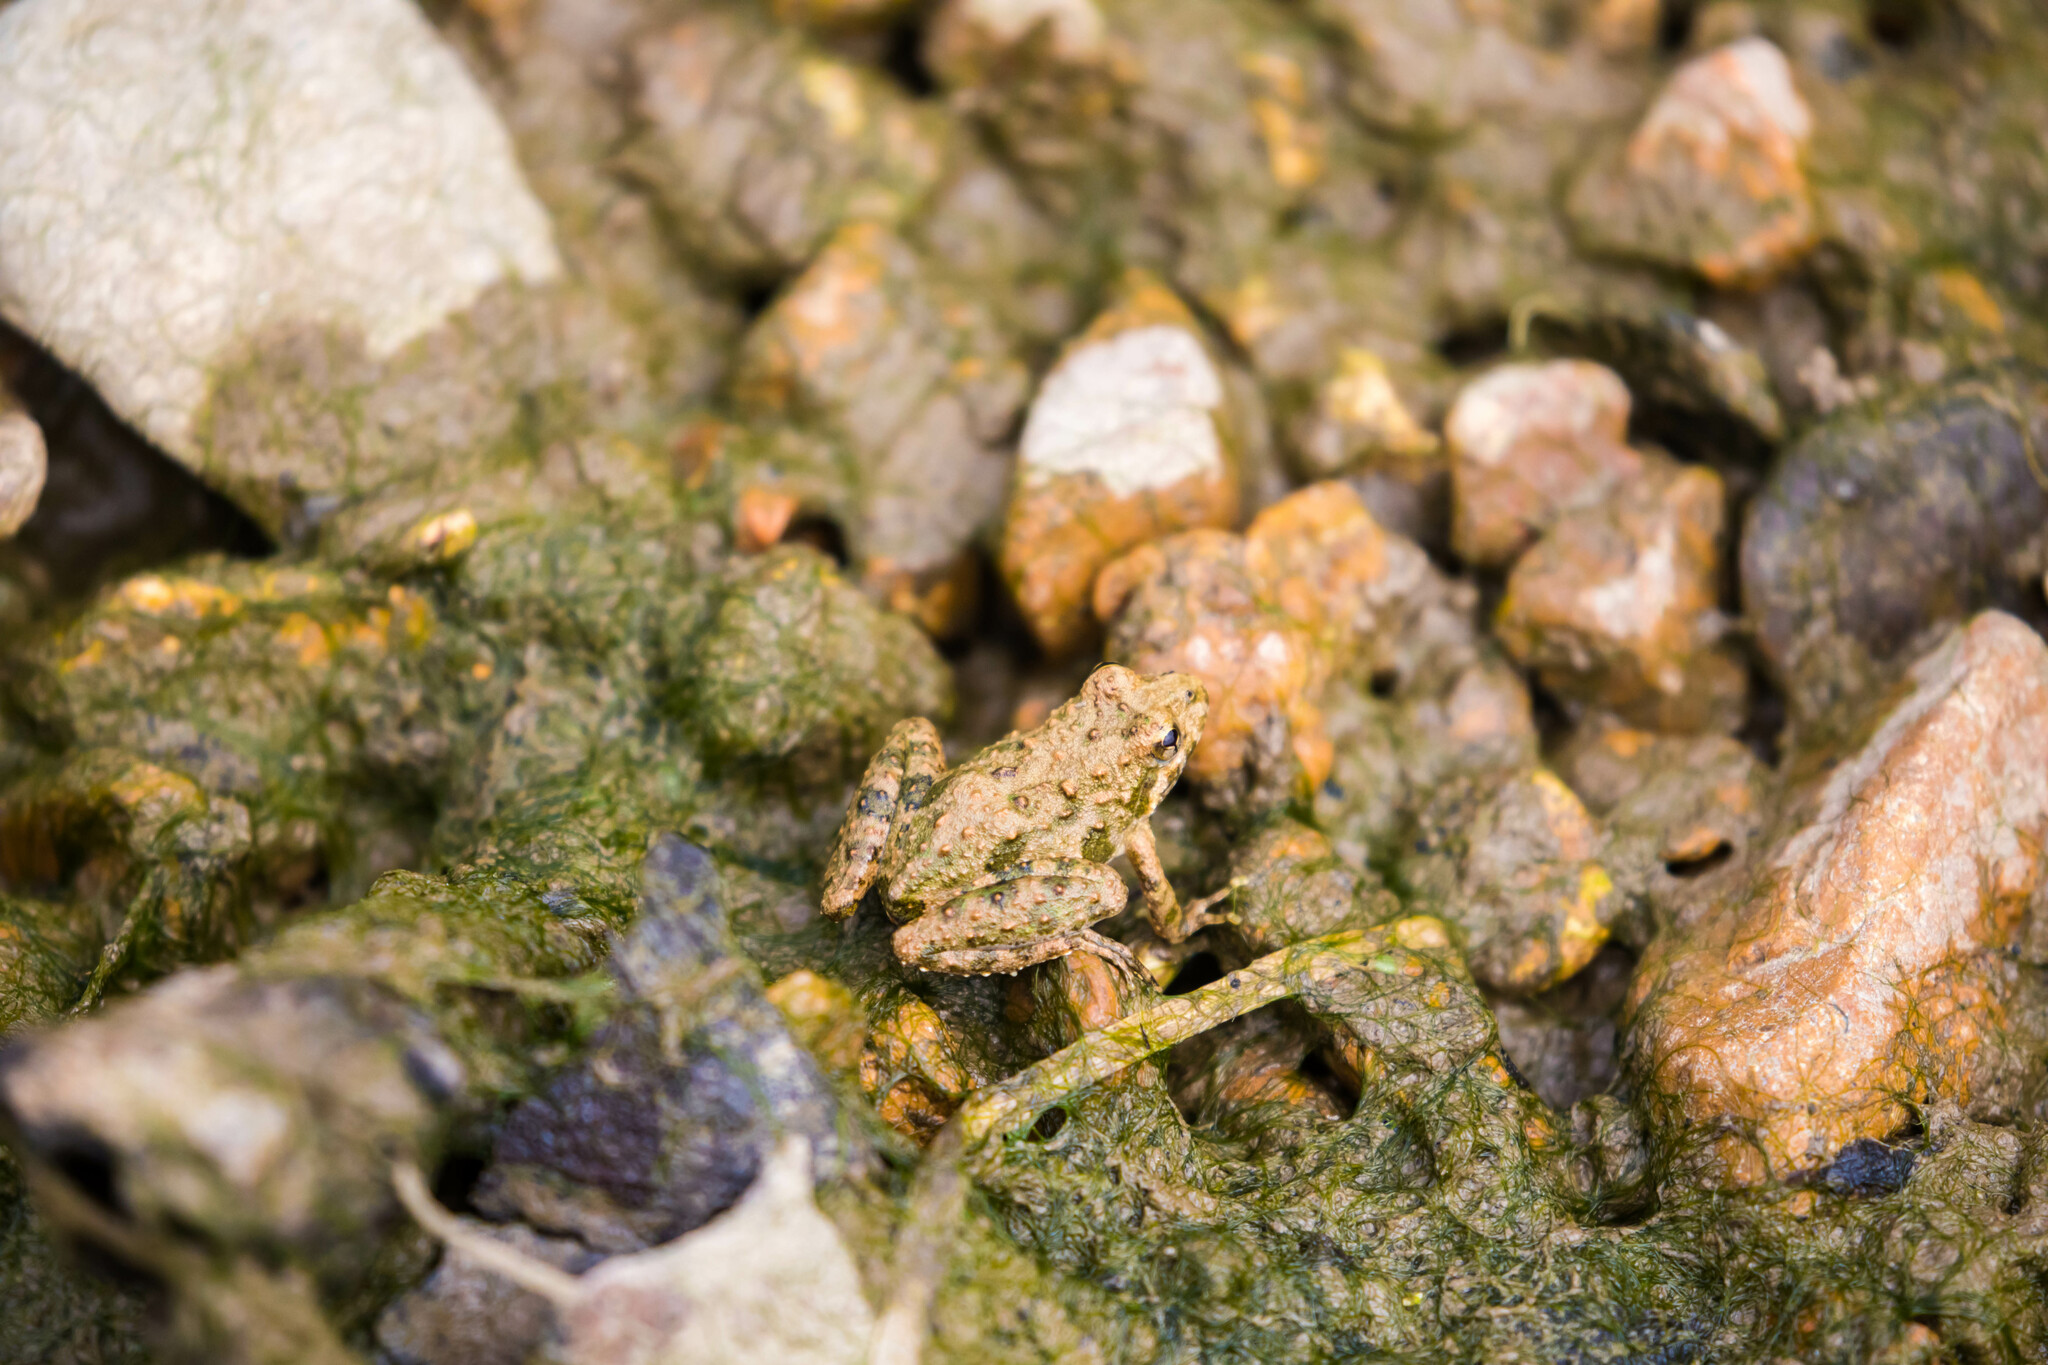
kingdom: Animalia
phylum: Chordata
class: Amphibia
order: Anura
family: Hylidae
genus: Acris
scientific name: Acris blanchardi
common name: Blanchard's cricket frog
